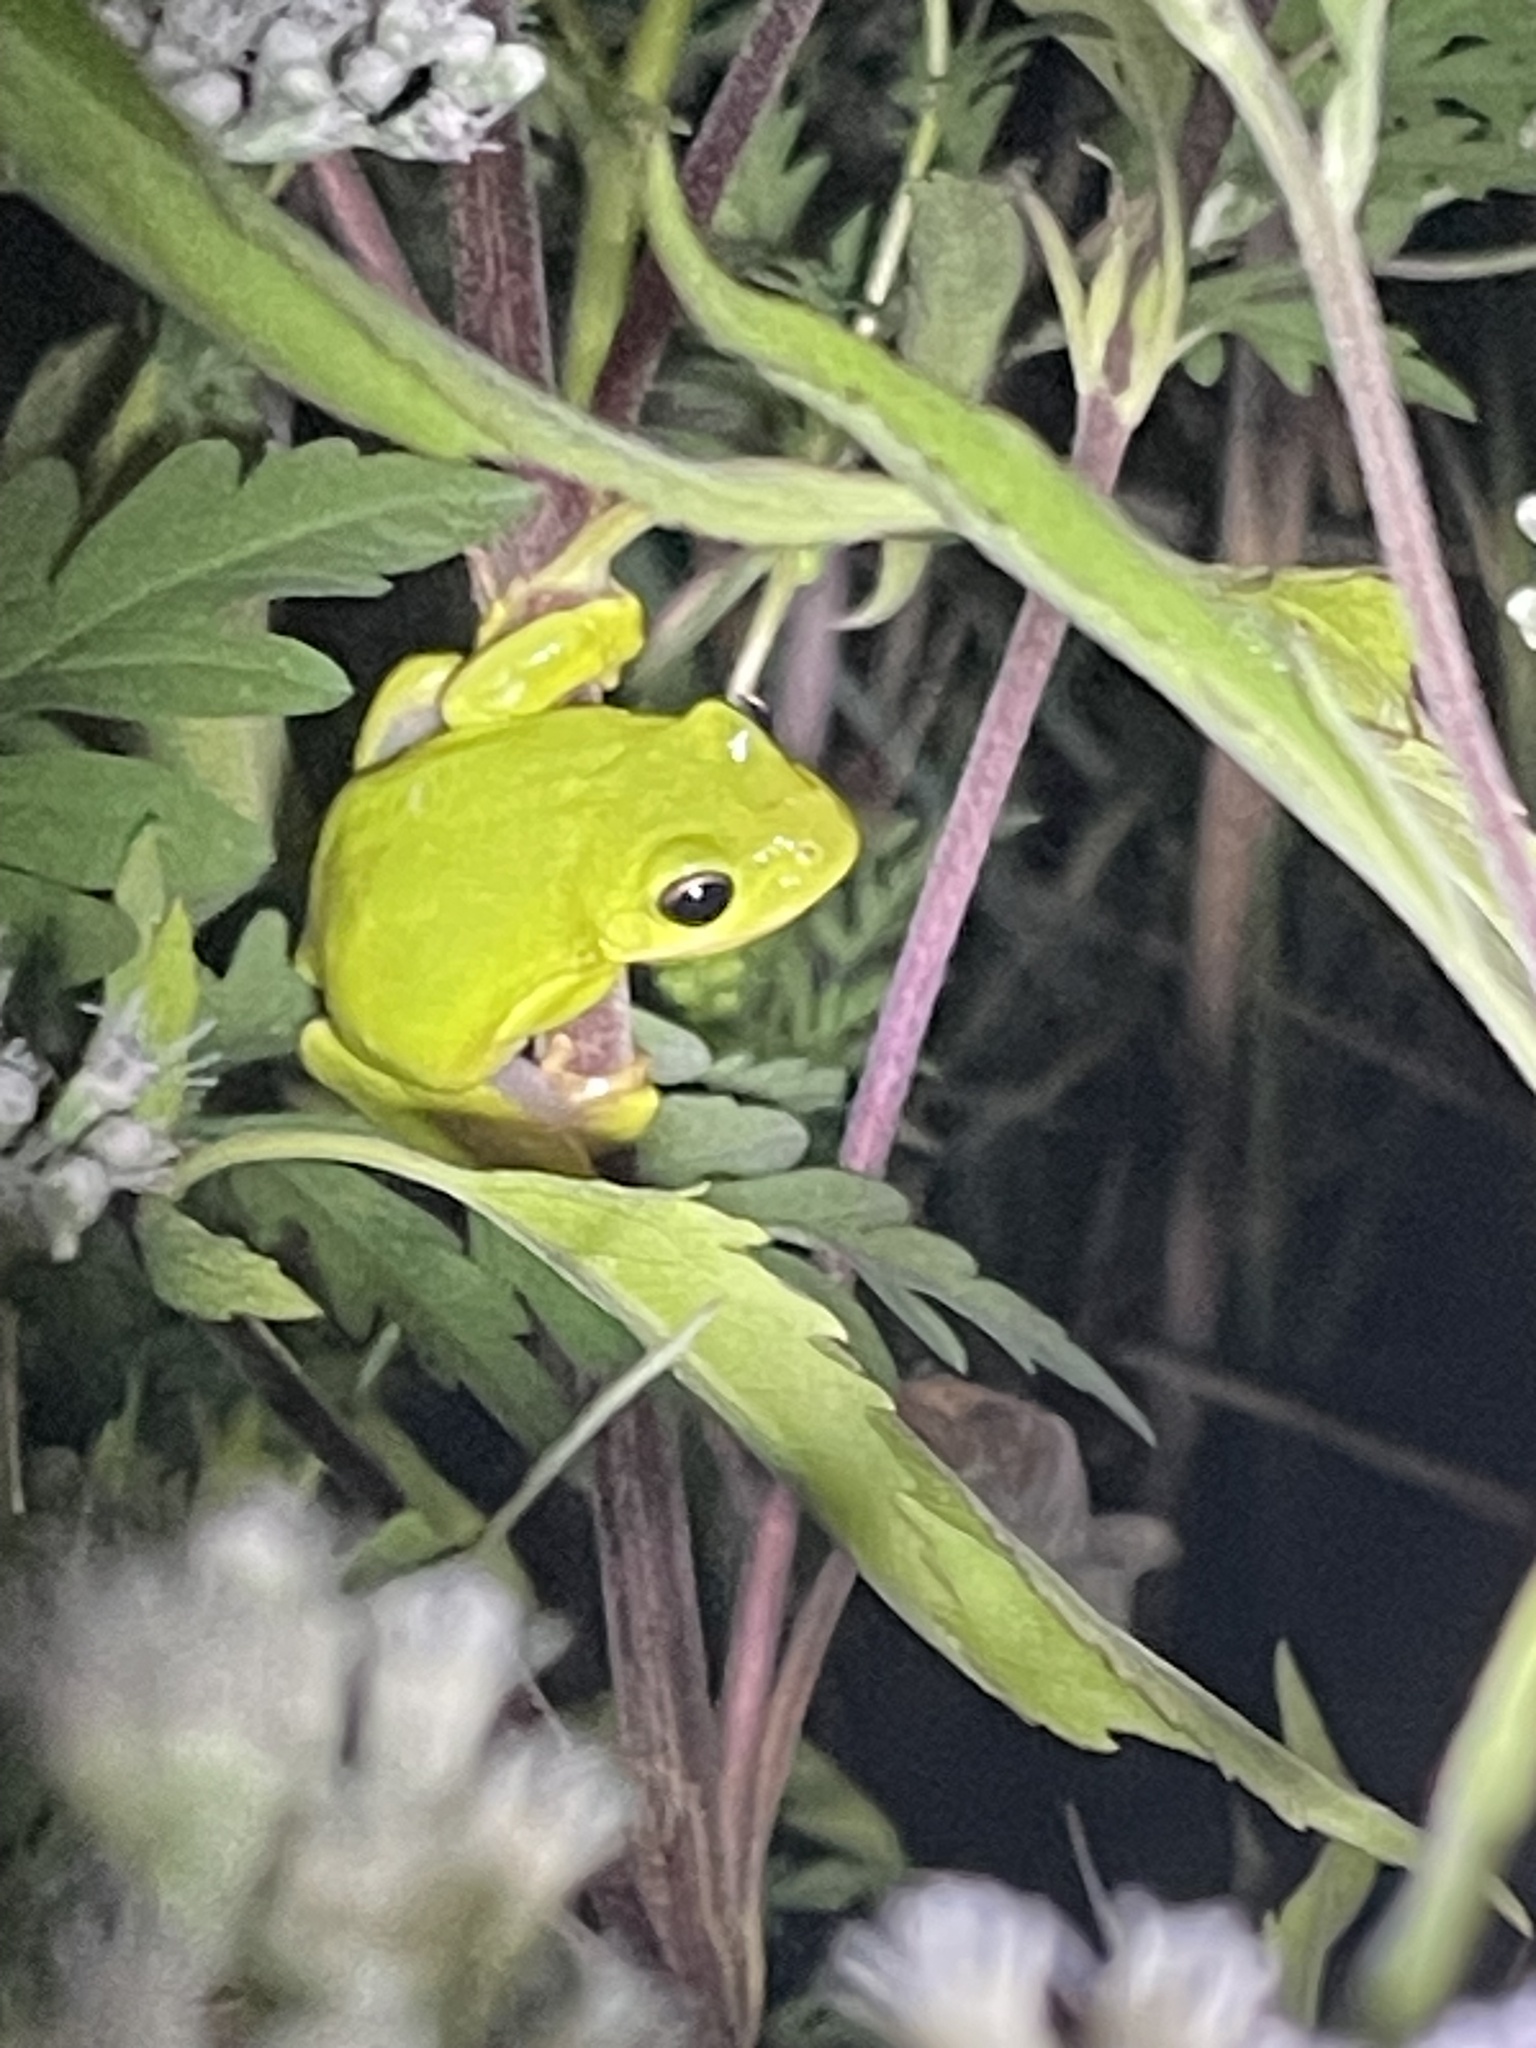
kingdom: Animalia
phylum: Chordata
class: Amphibia
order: Anura
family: Hylidae
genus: Dryophytes
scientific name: Dryophytes cinereus
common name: Green treefrog
